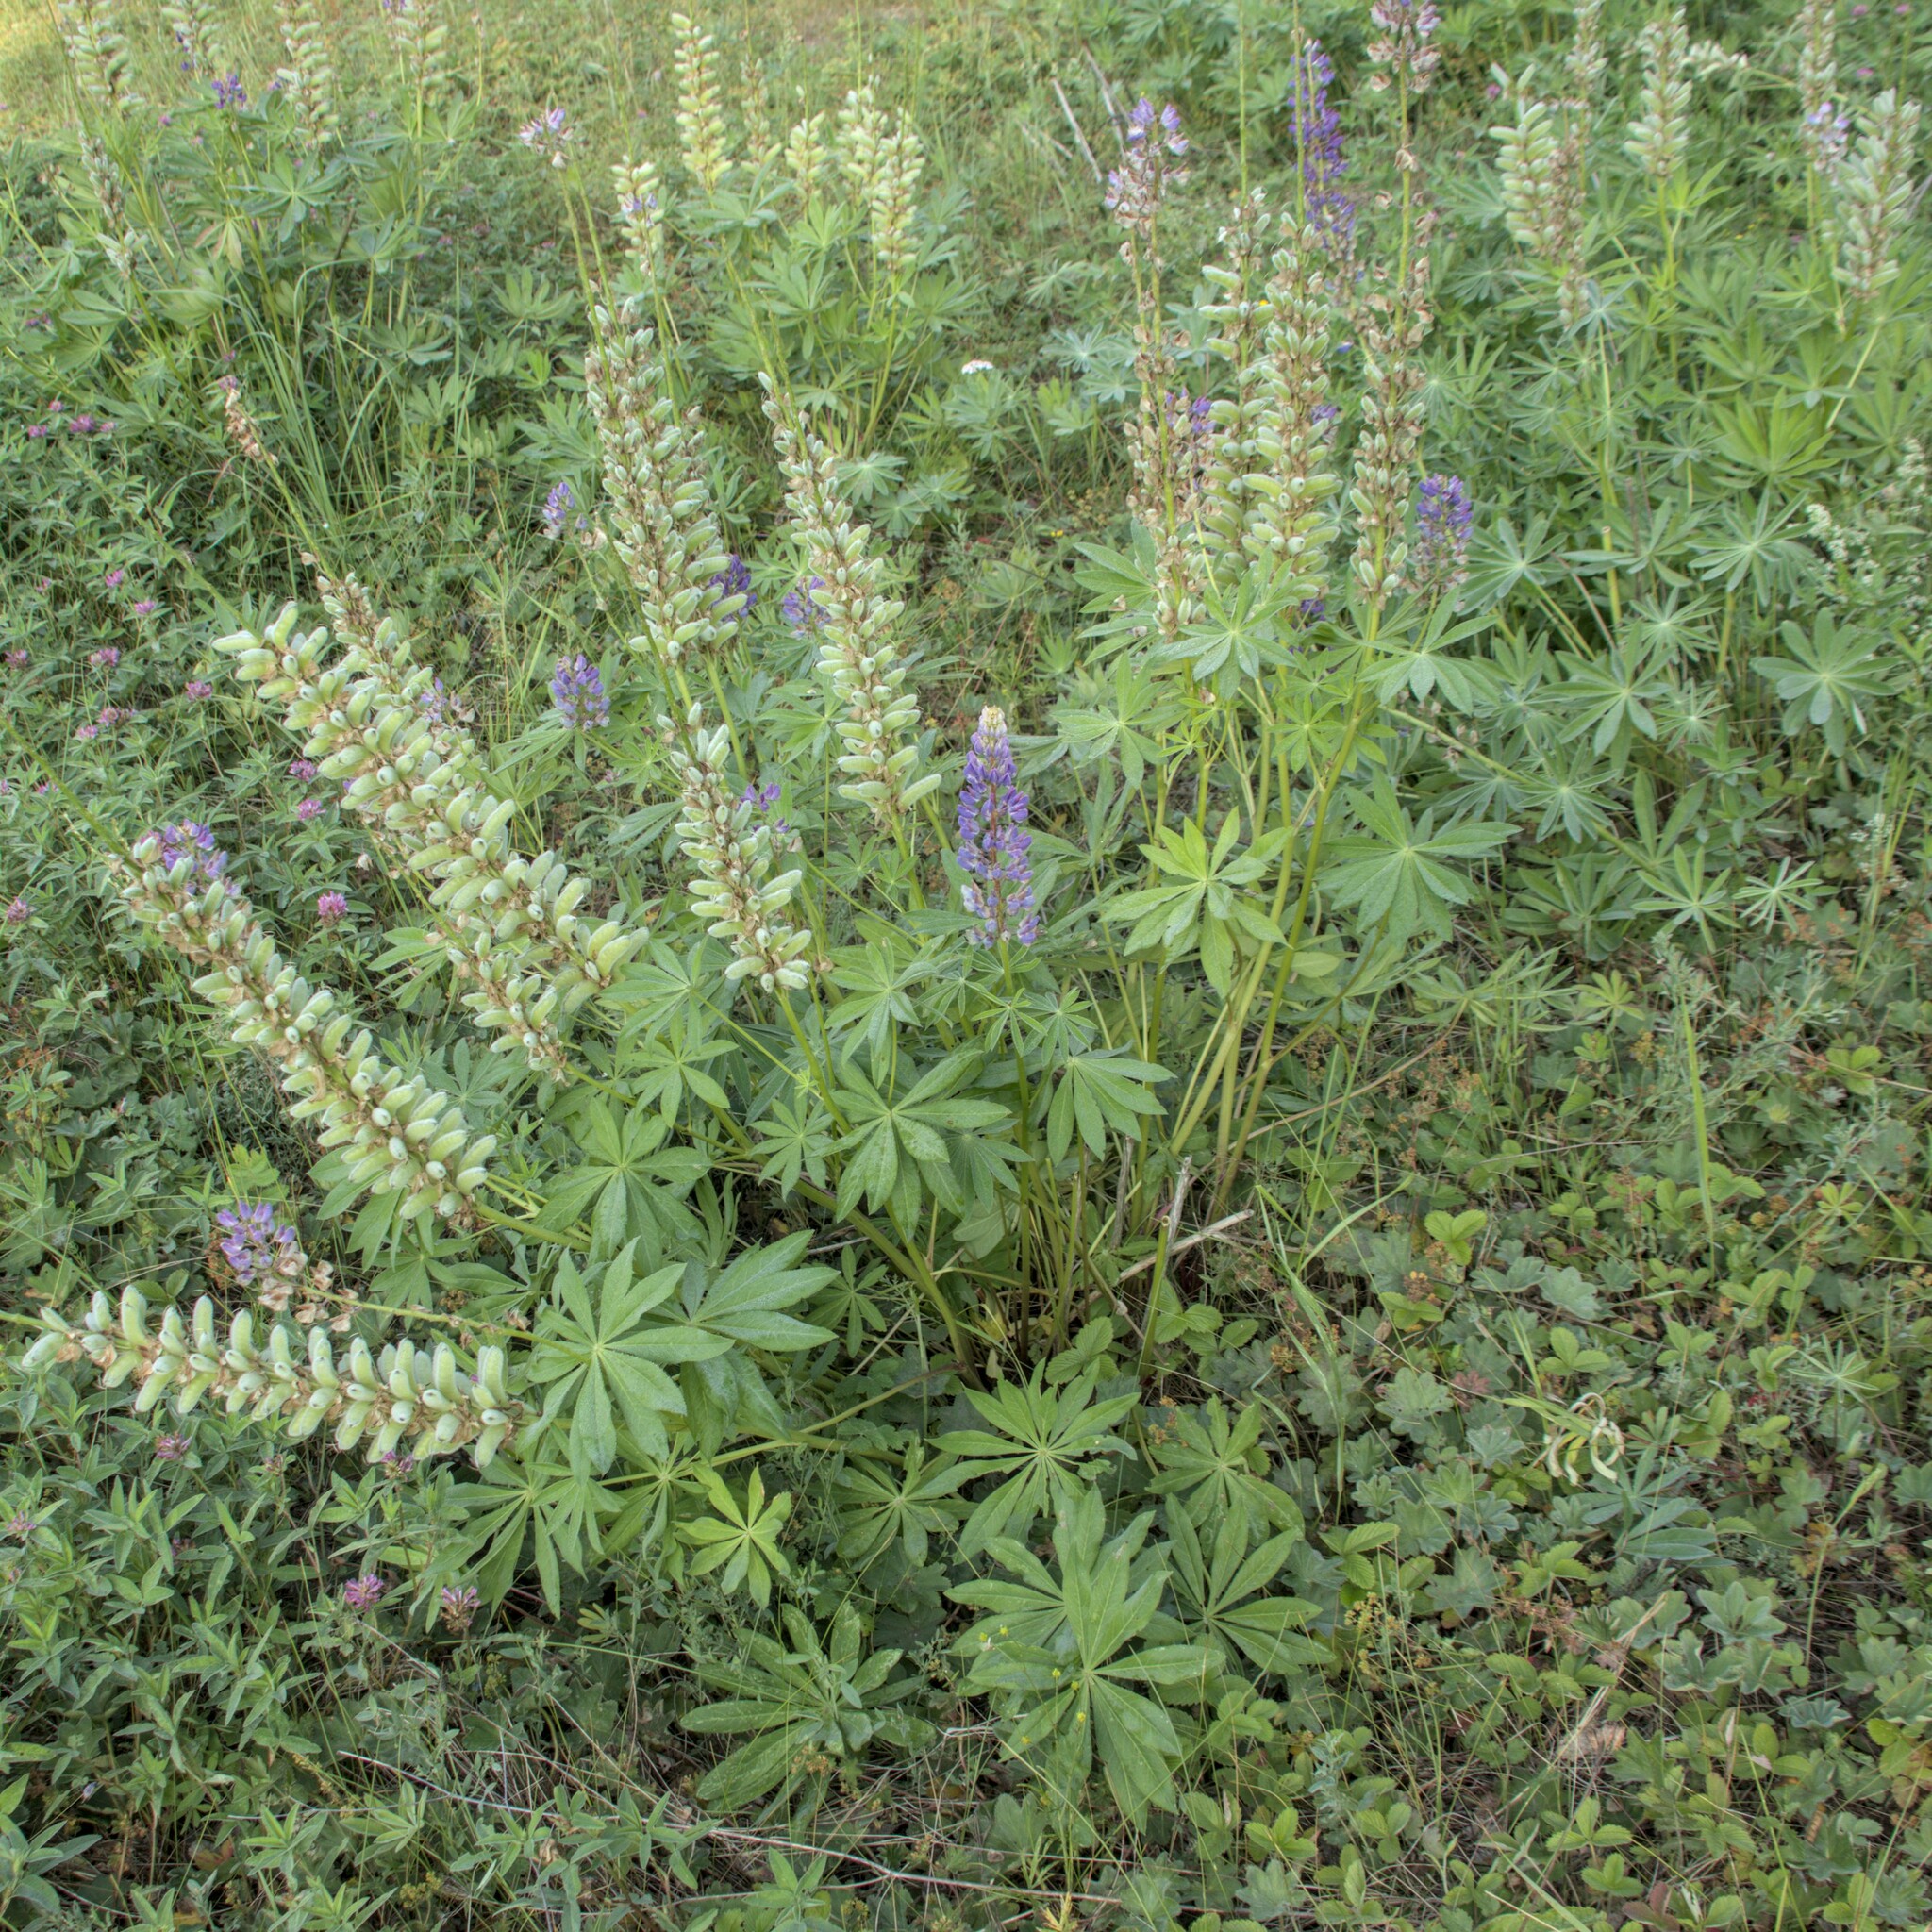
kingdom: Plantae
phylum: Tracheophyta
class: Magnoliopsida
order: Fabales
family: Fabaceae
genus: Lupinus
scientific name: Lupinus polyphyllus
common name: Garden lupin
